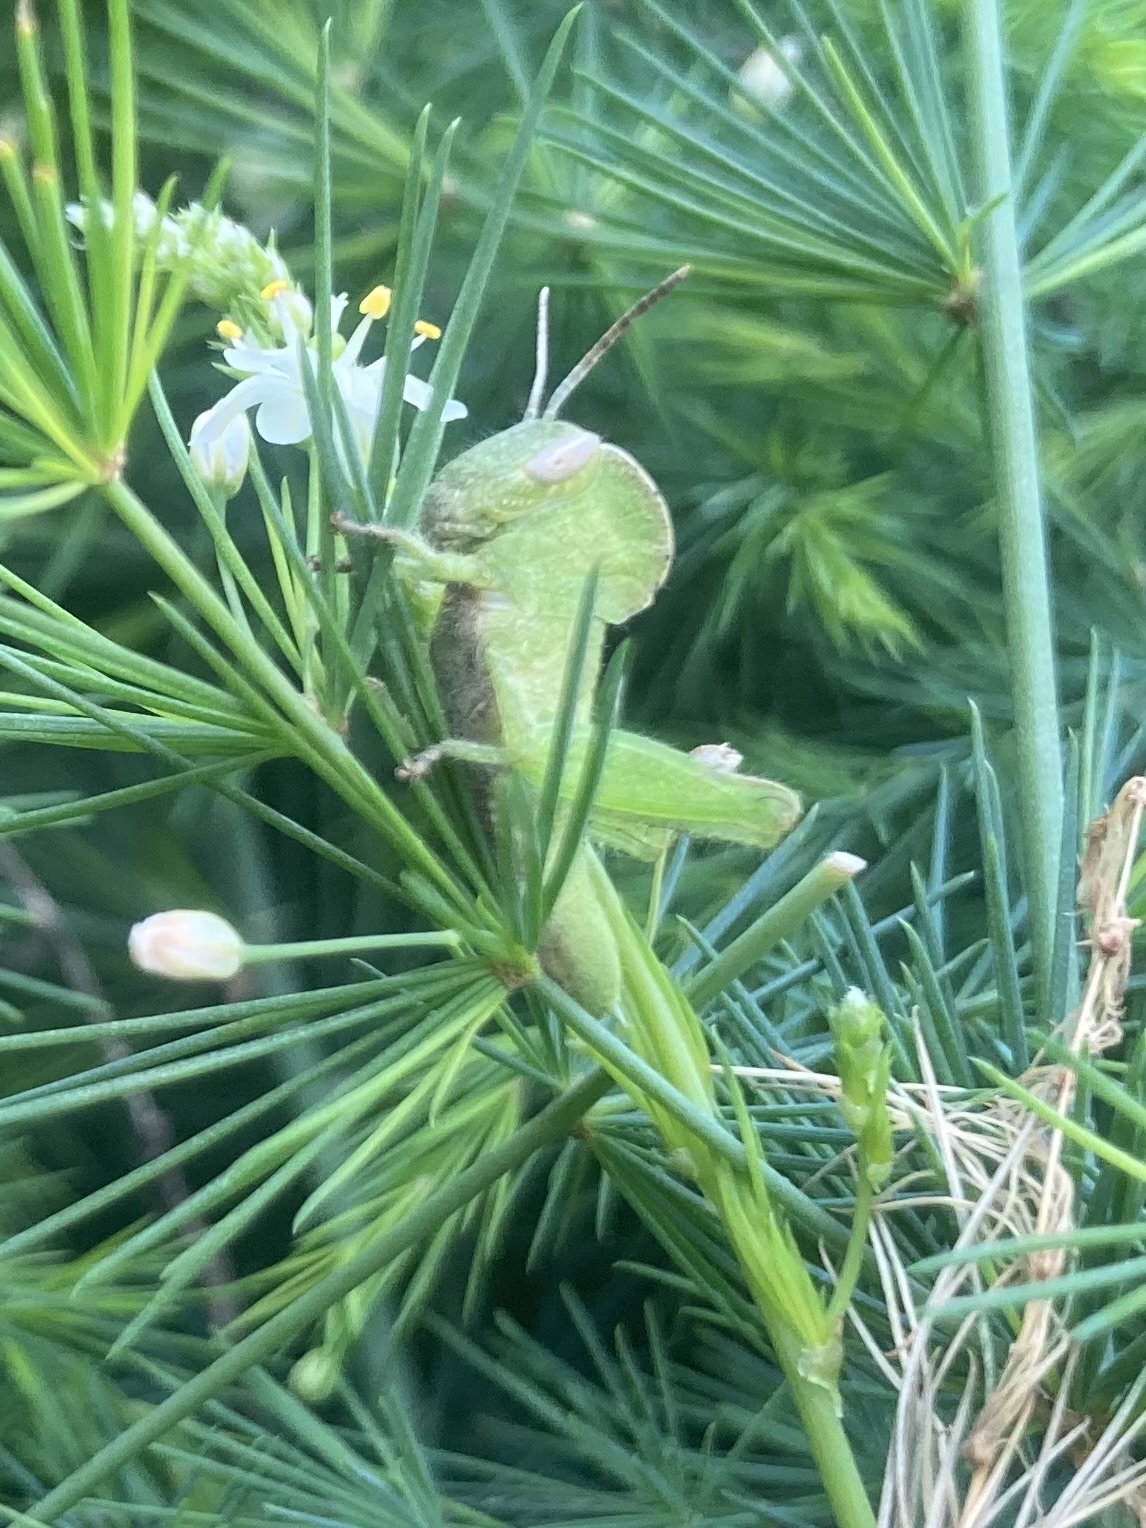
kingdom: Animalia
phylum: Arthropoda
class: Insecta
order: Orthoptera
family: Acrididae
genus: Abisares
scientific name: Abisares viridipenne
